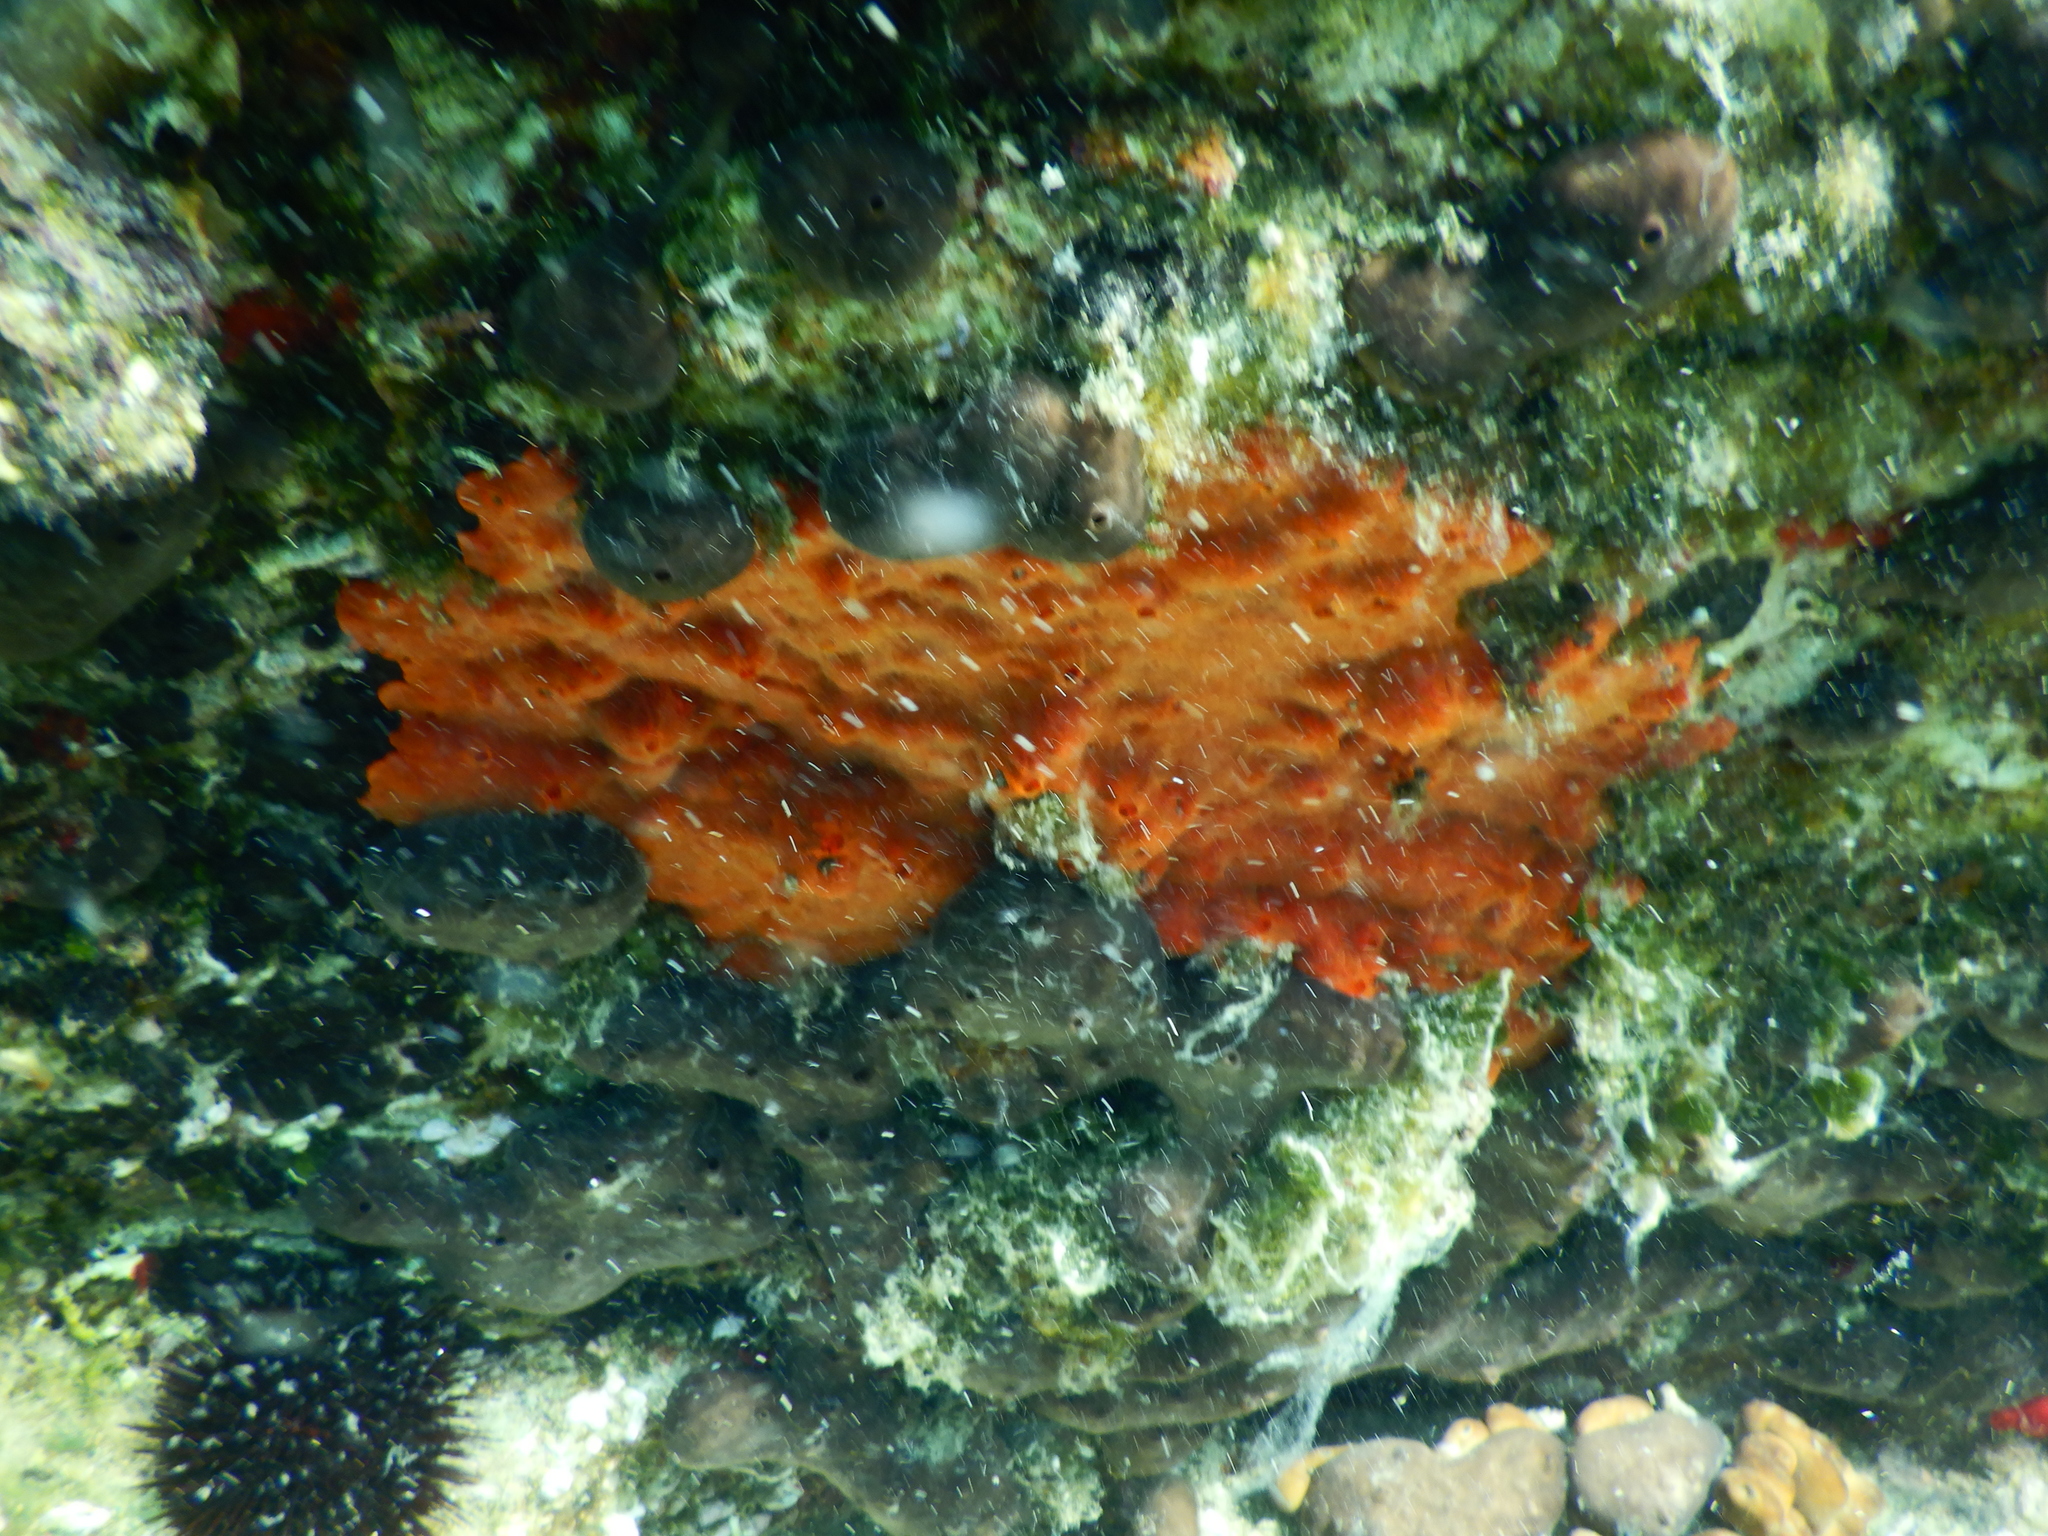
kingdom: Animalia
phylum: Porifera
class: Demospongiae
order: Poecilosclerida
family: Crambeidae
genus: Crambe
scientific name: Crambe crambe
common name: Orange-red encrusting sponge
